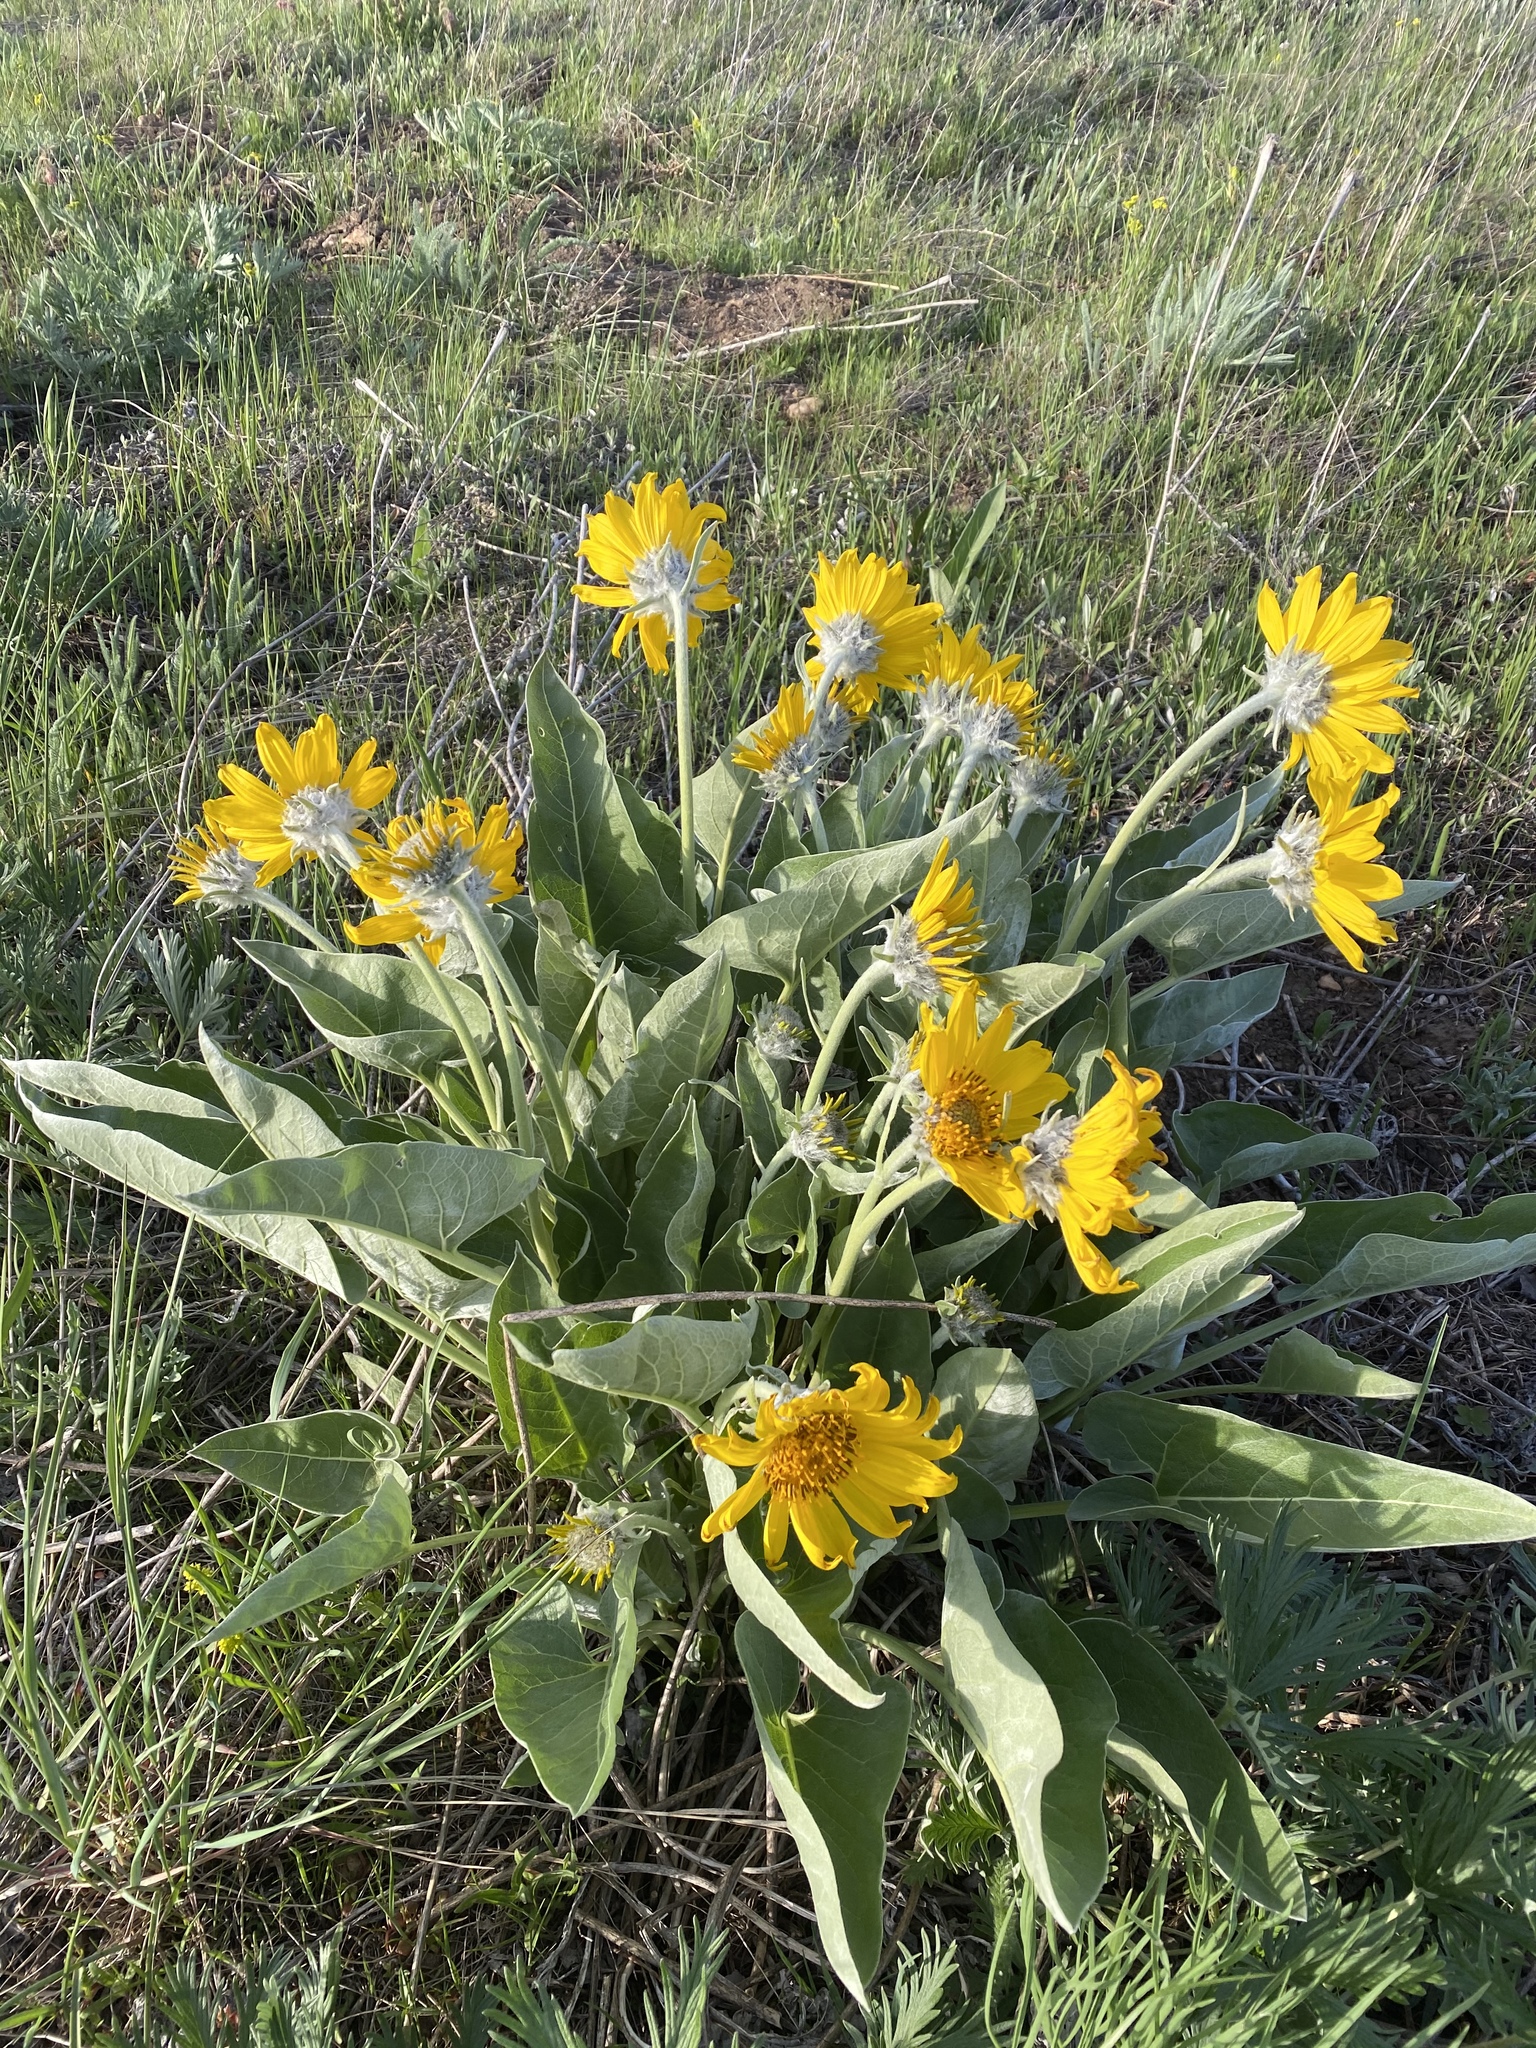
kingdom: Plantae
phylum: Tracheophyta
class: Magnoliopsida
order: Asterales
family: Asteraceae
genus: Wyethia
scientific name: Wyethia sagittata
